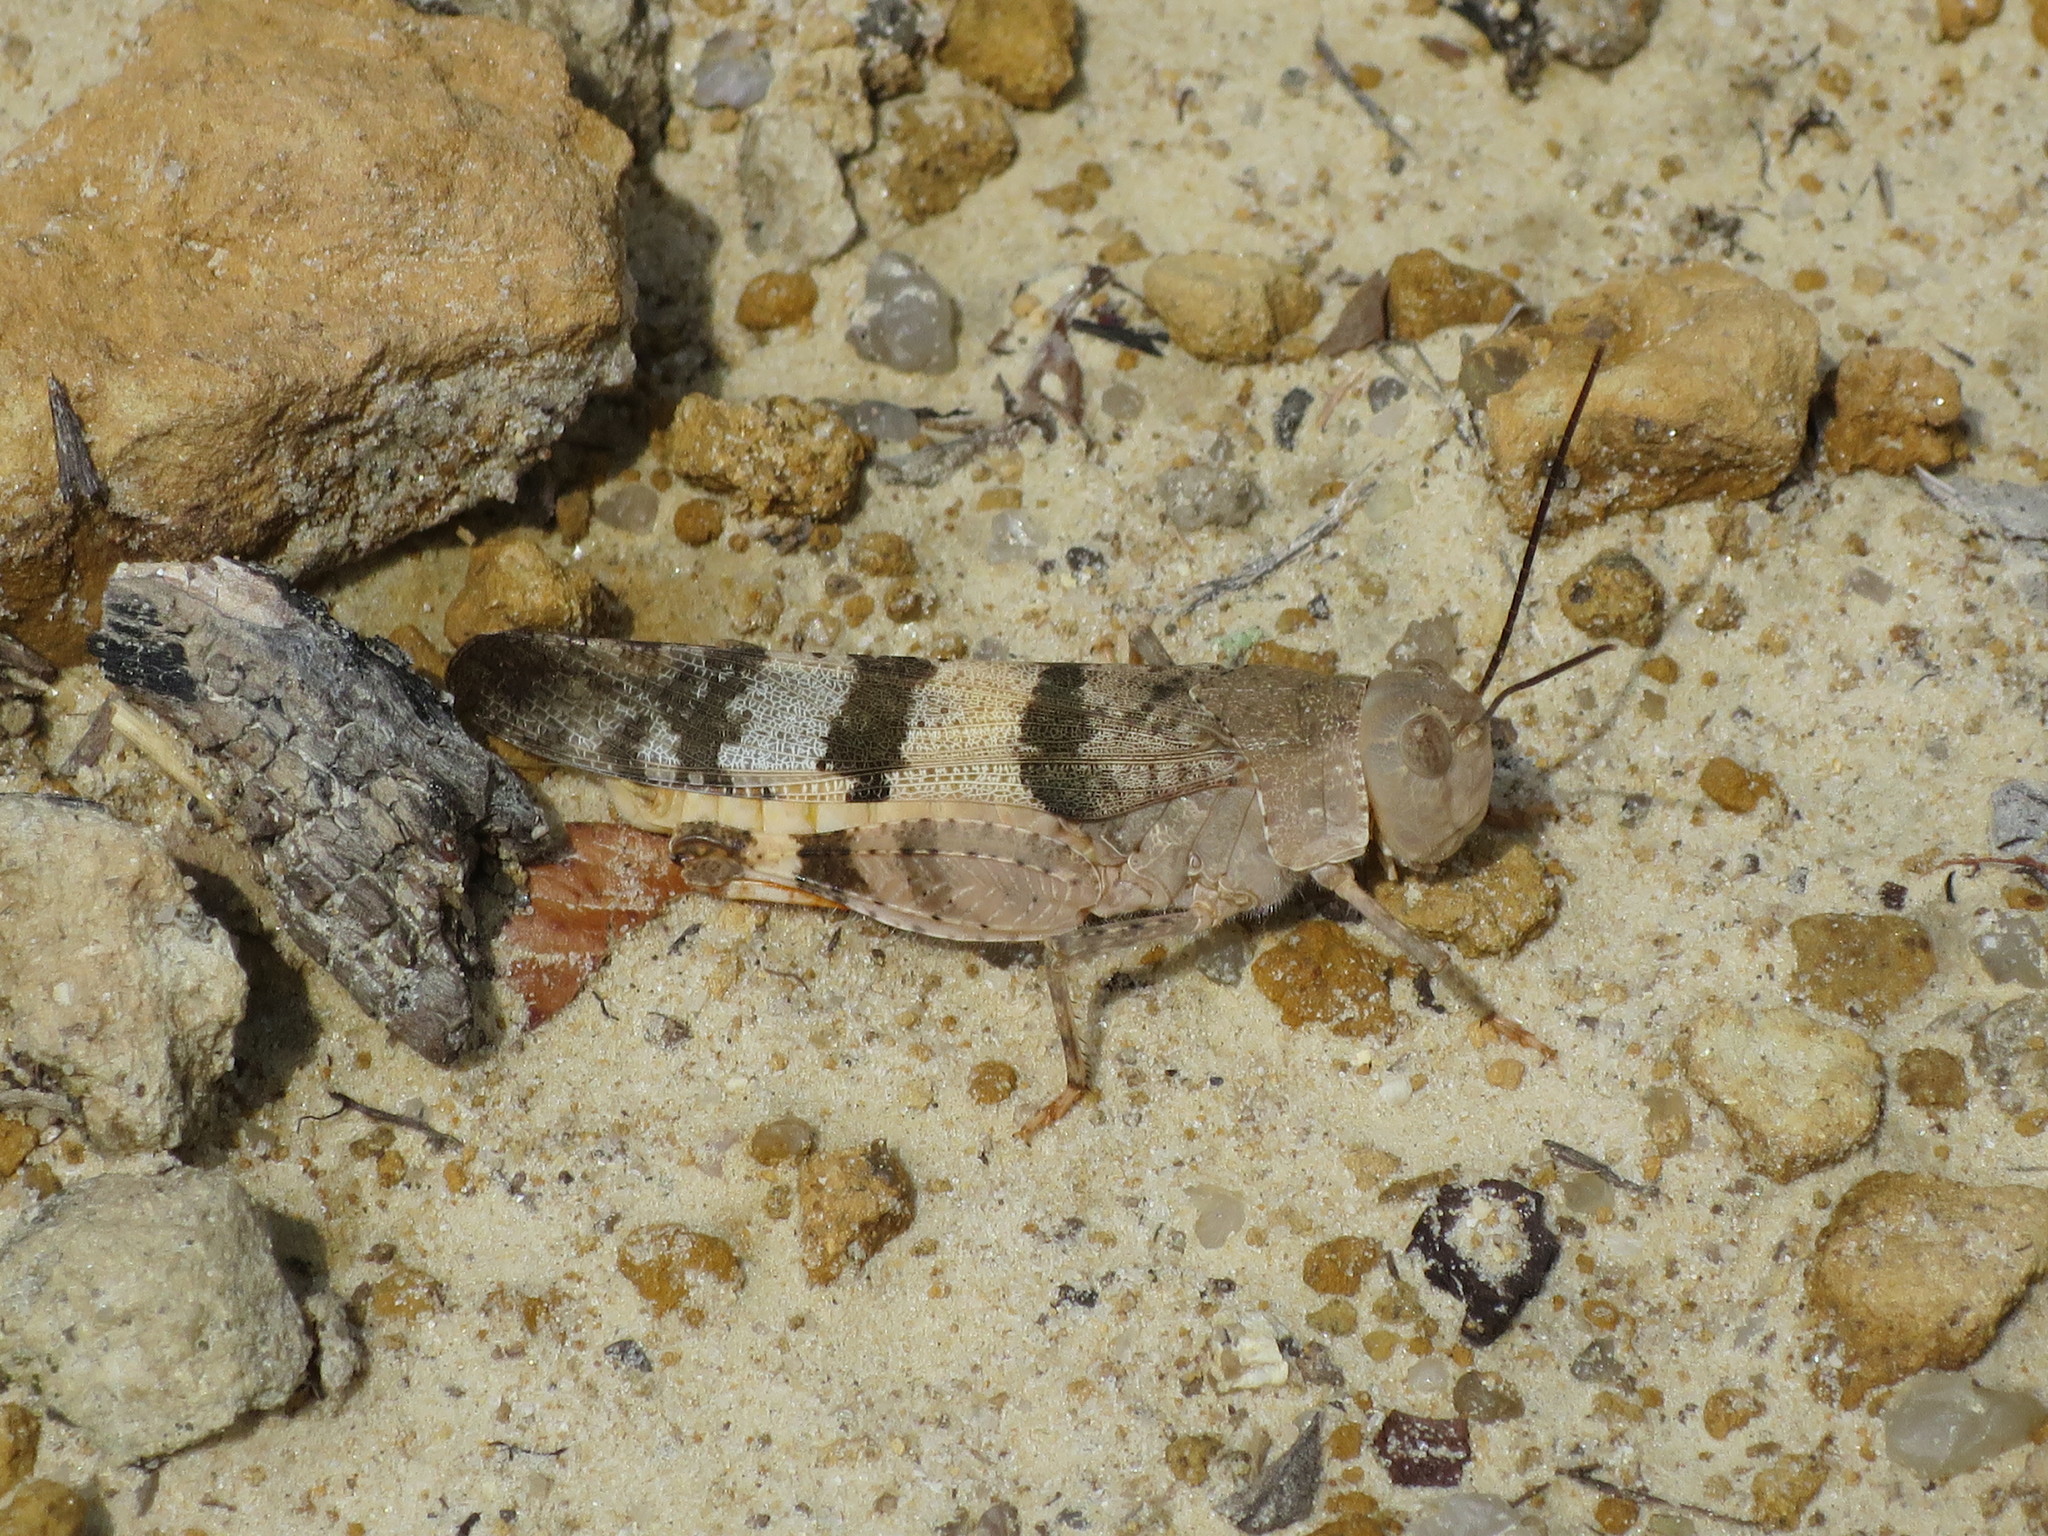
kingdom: Animalia
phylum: Arthropoda
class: Insecta
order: Orthoptera
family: Acrididae
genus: Spharagemon
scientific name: Spharagemon equale
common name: Orange-legged grasshopper
